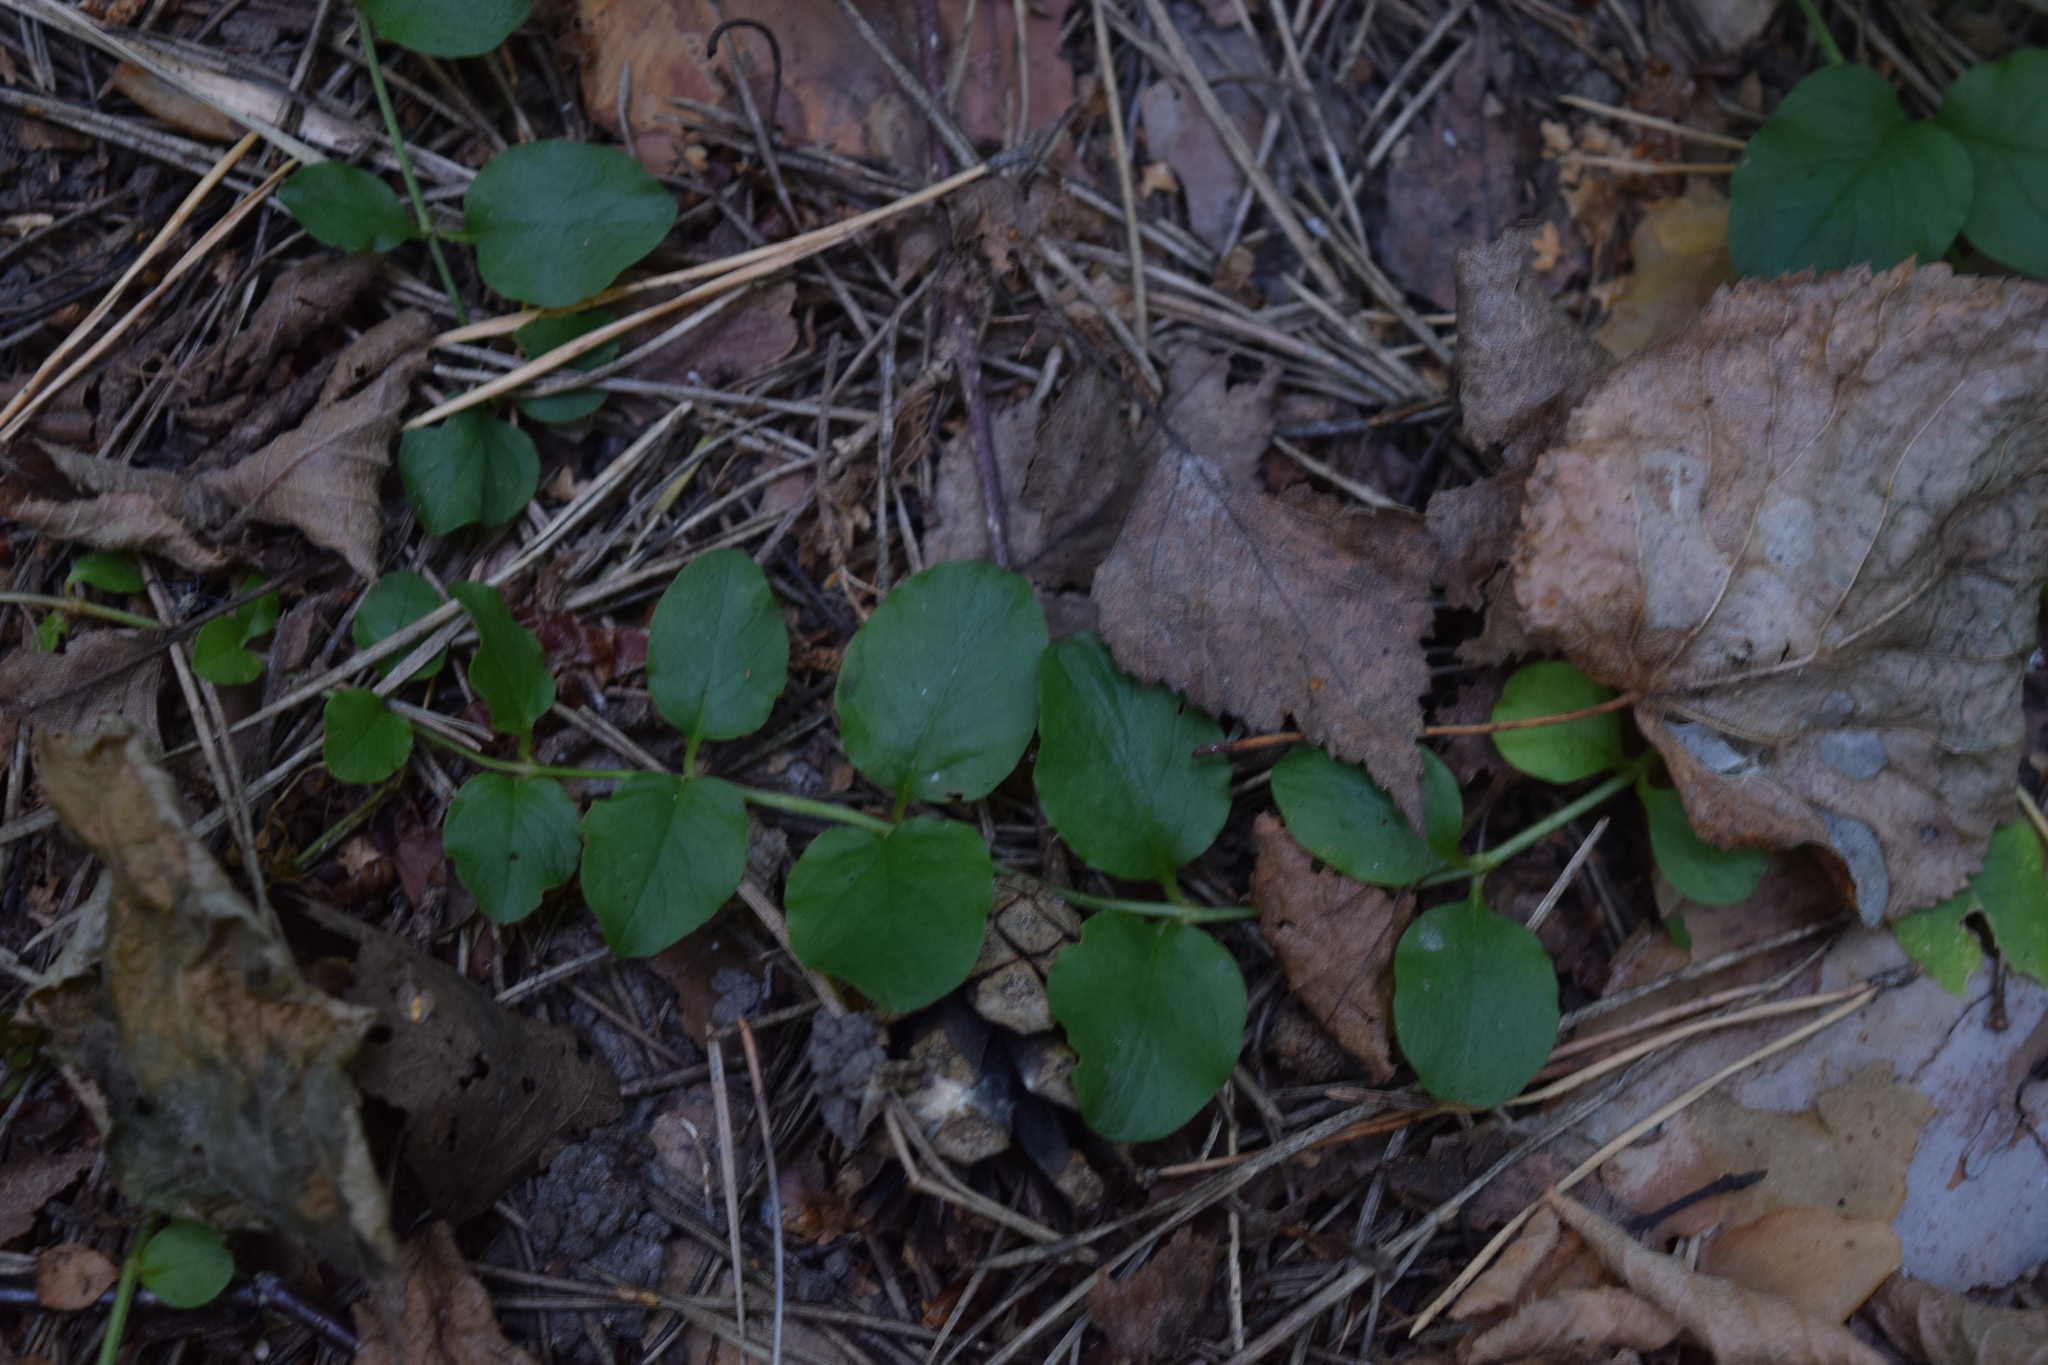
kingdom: Plantae
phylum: Tracheophyta
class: Magnoliopsida
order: Ericales
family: Primulaceae
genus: Lysimachia
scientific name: Lysimachia nummularia
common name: Moneywort
